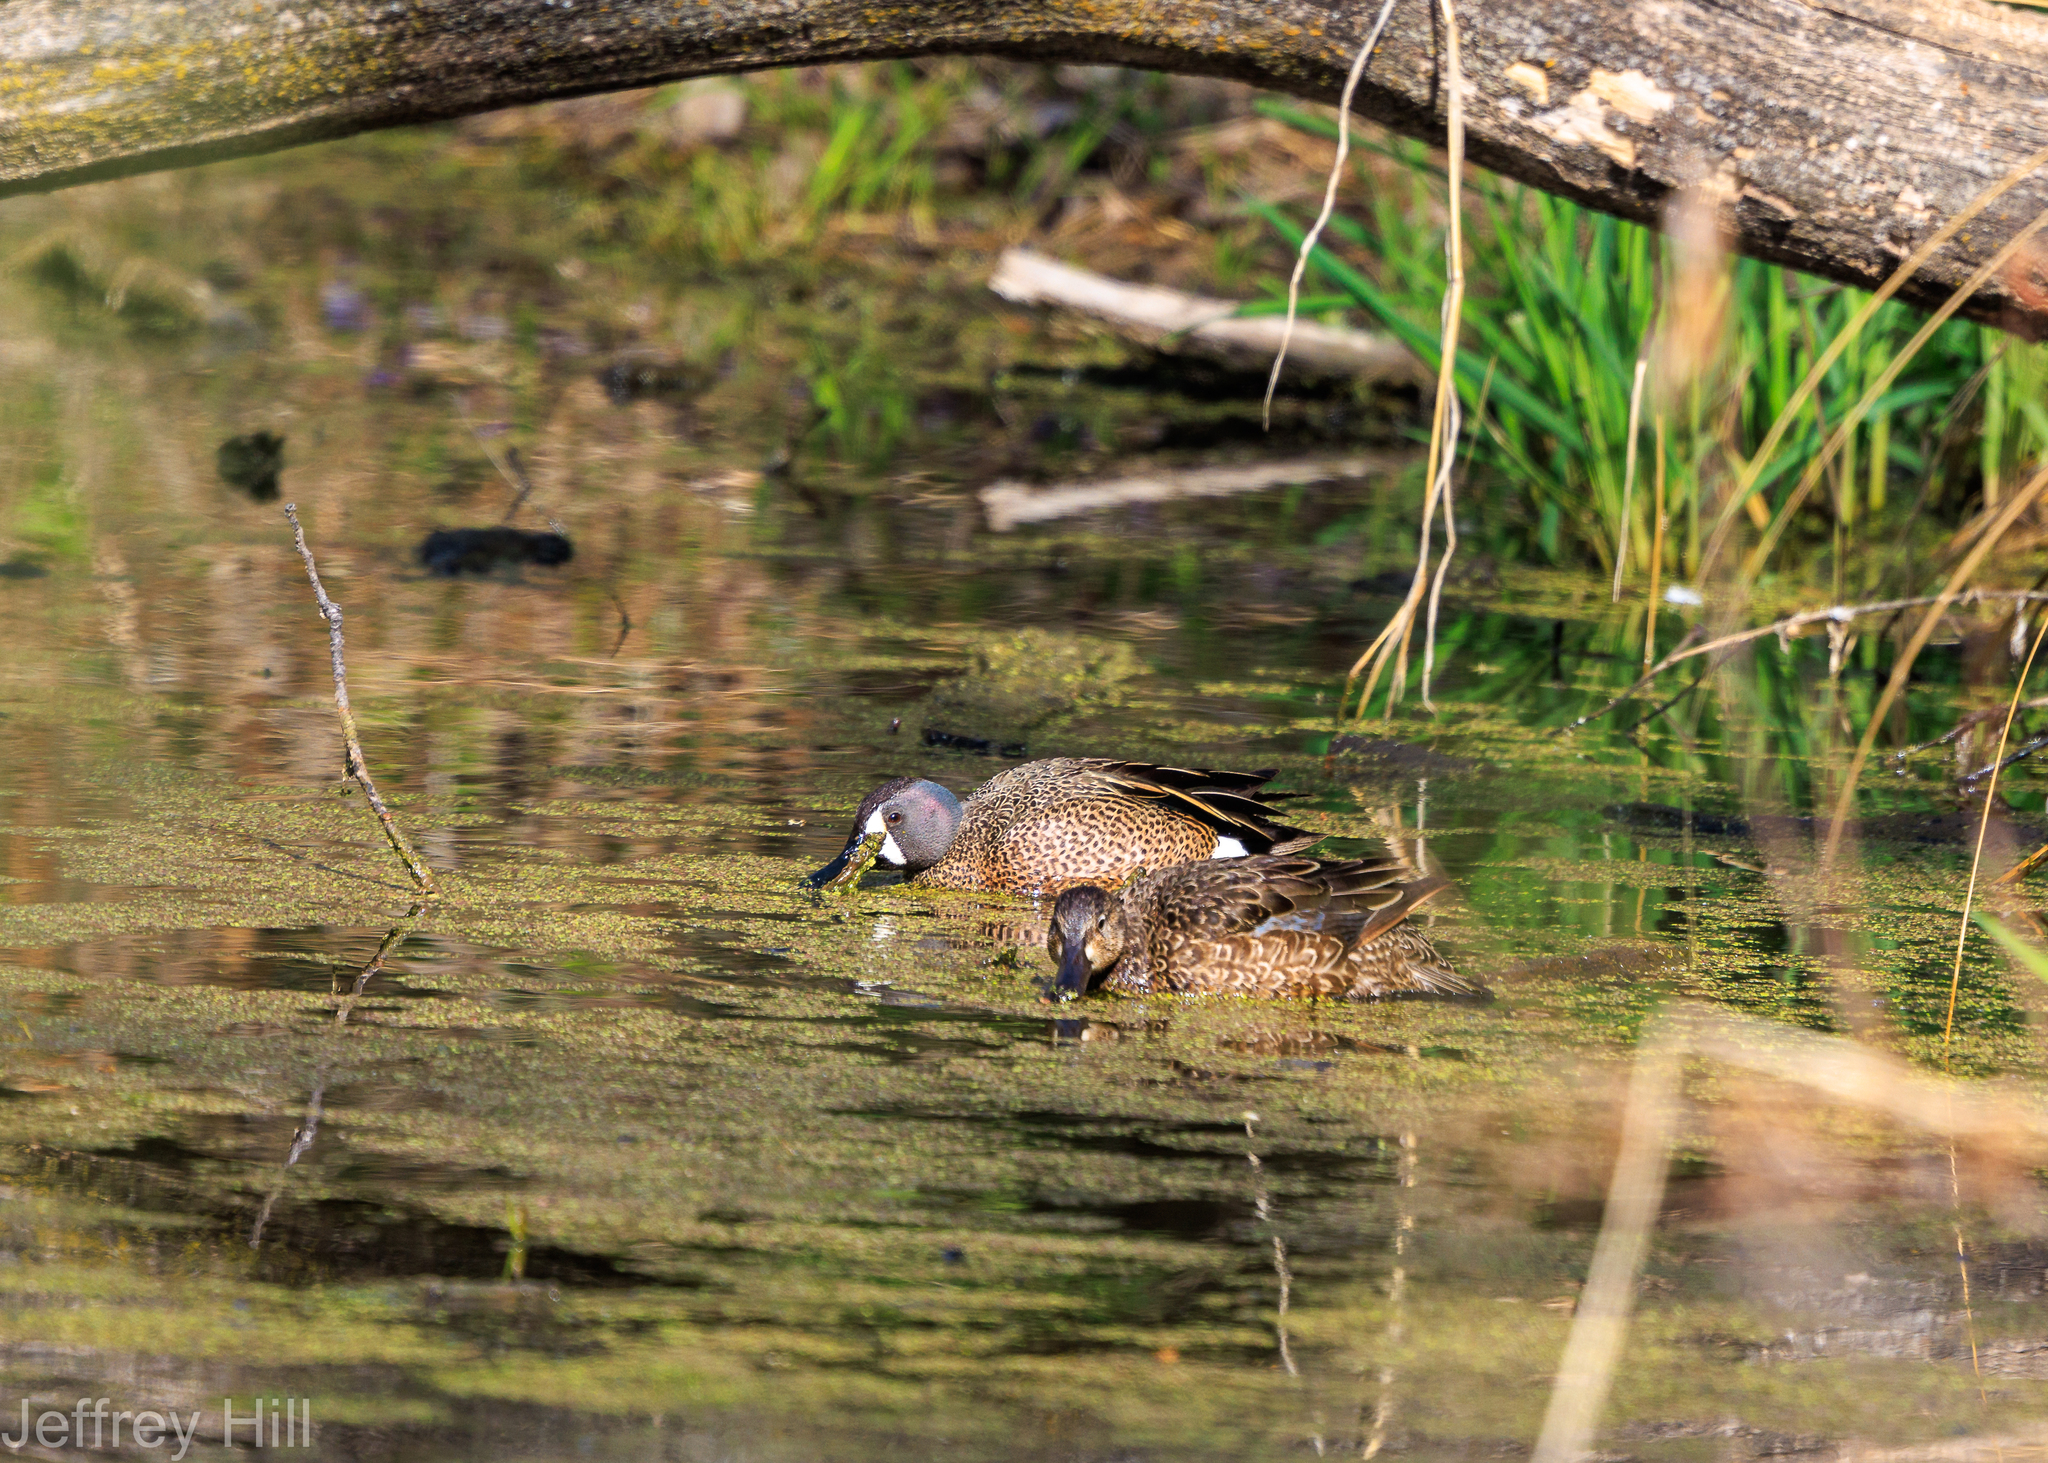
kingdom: Animalia
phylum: Chordata
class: Aves
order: Anseriformes
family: Anatidae
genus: Spatula
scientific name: Spatula discors
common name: Blue-winged teal
